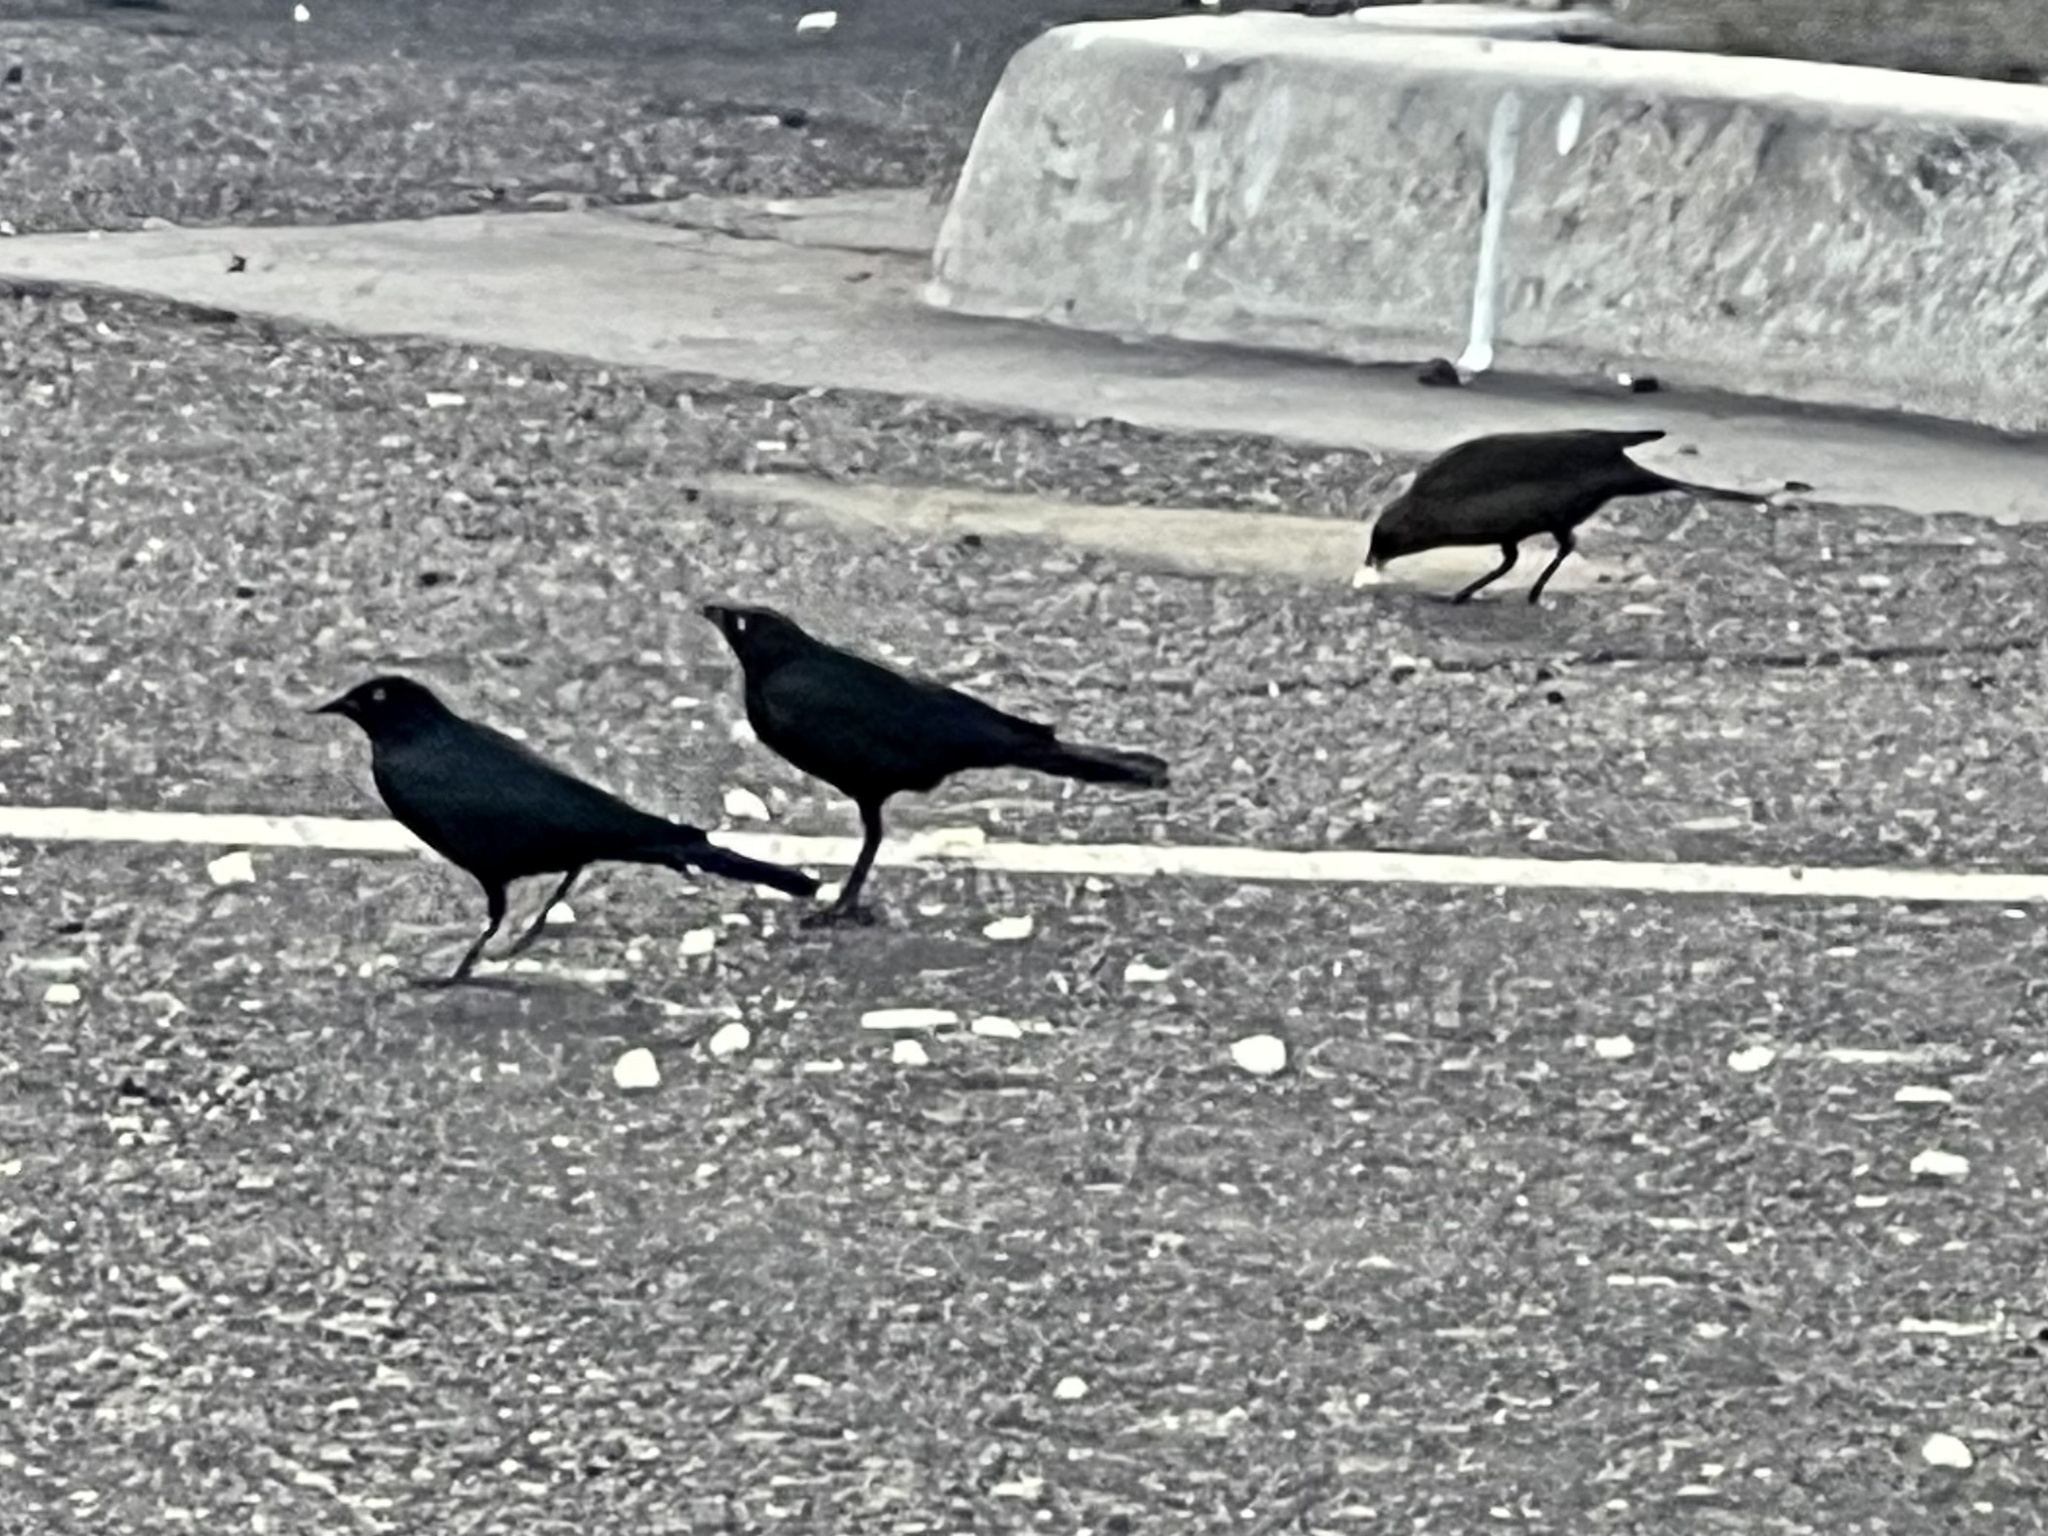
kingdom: Animalia
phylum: Chordata
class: Aves
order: Passeriformes
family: Icteridae
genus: Euphagus
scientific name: Euphagus cyanocephalus
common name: Brewer's blackbird
